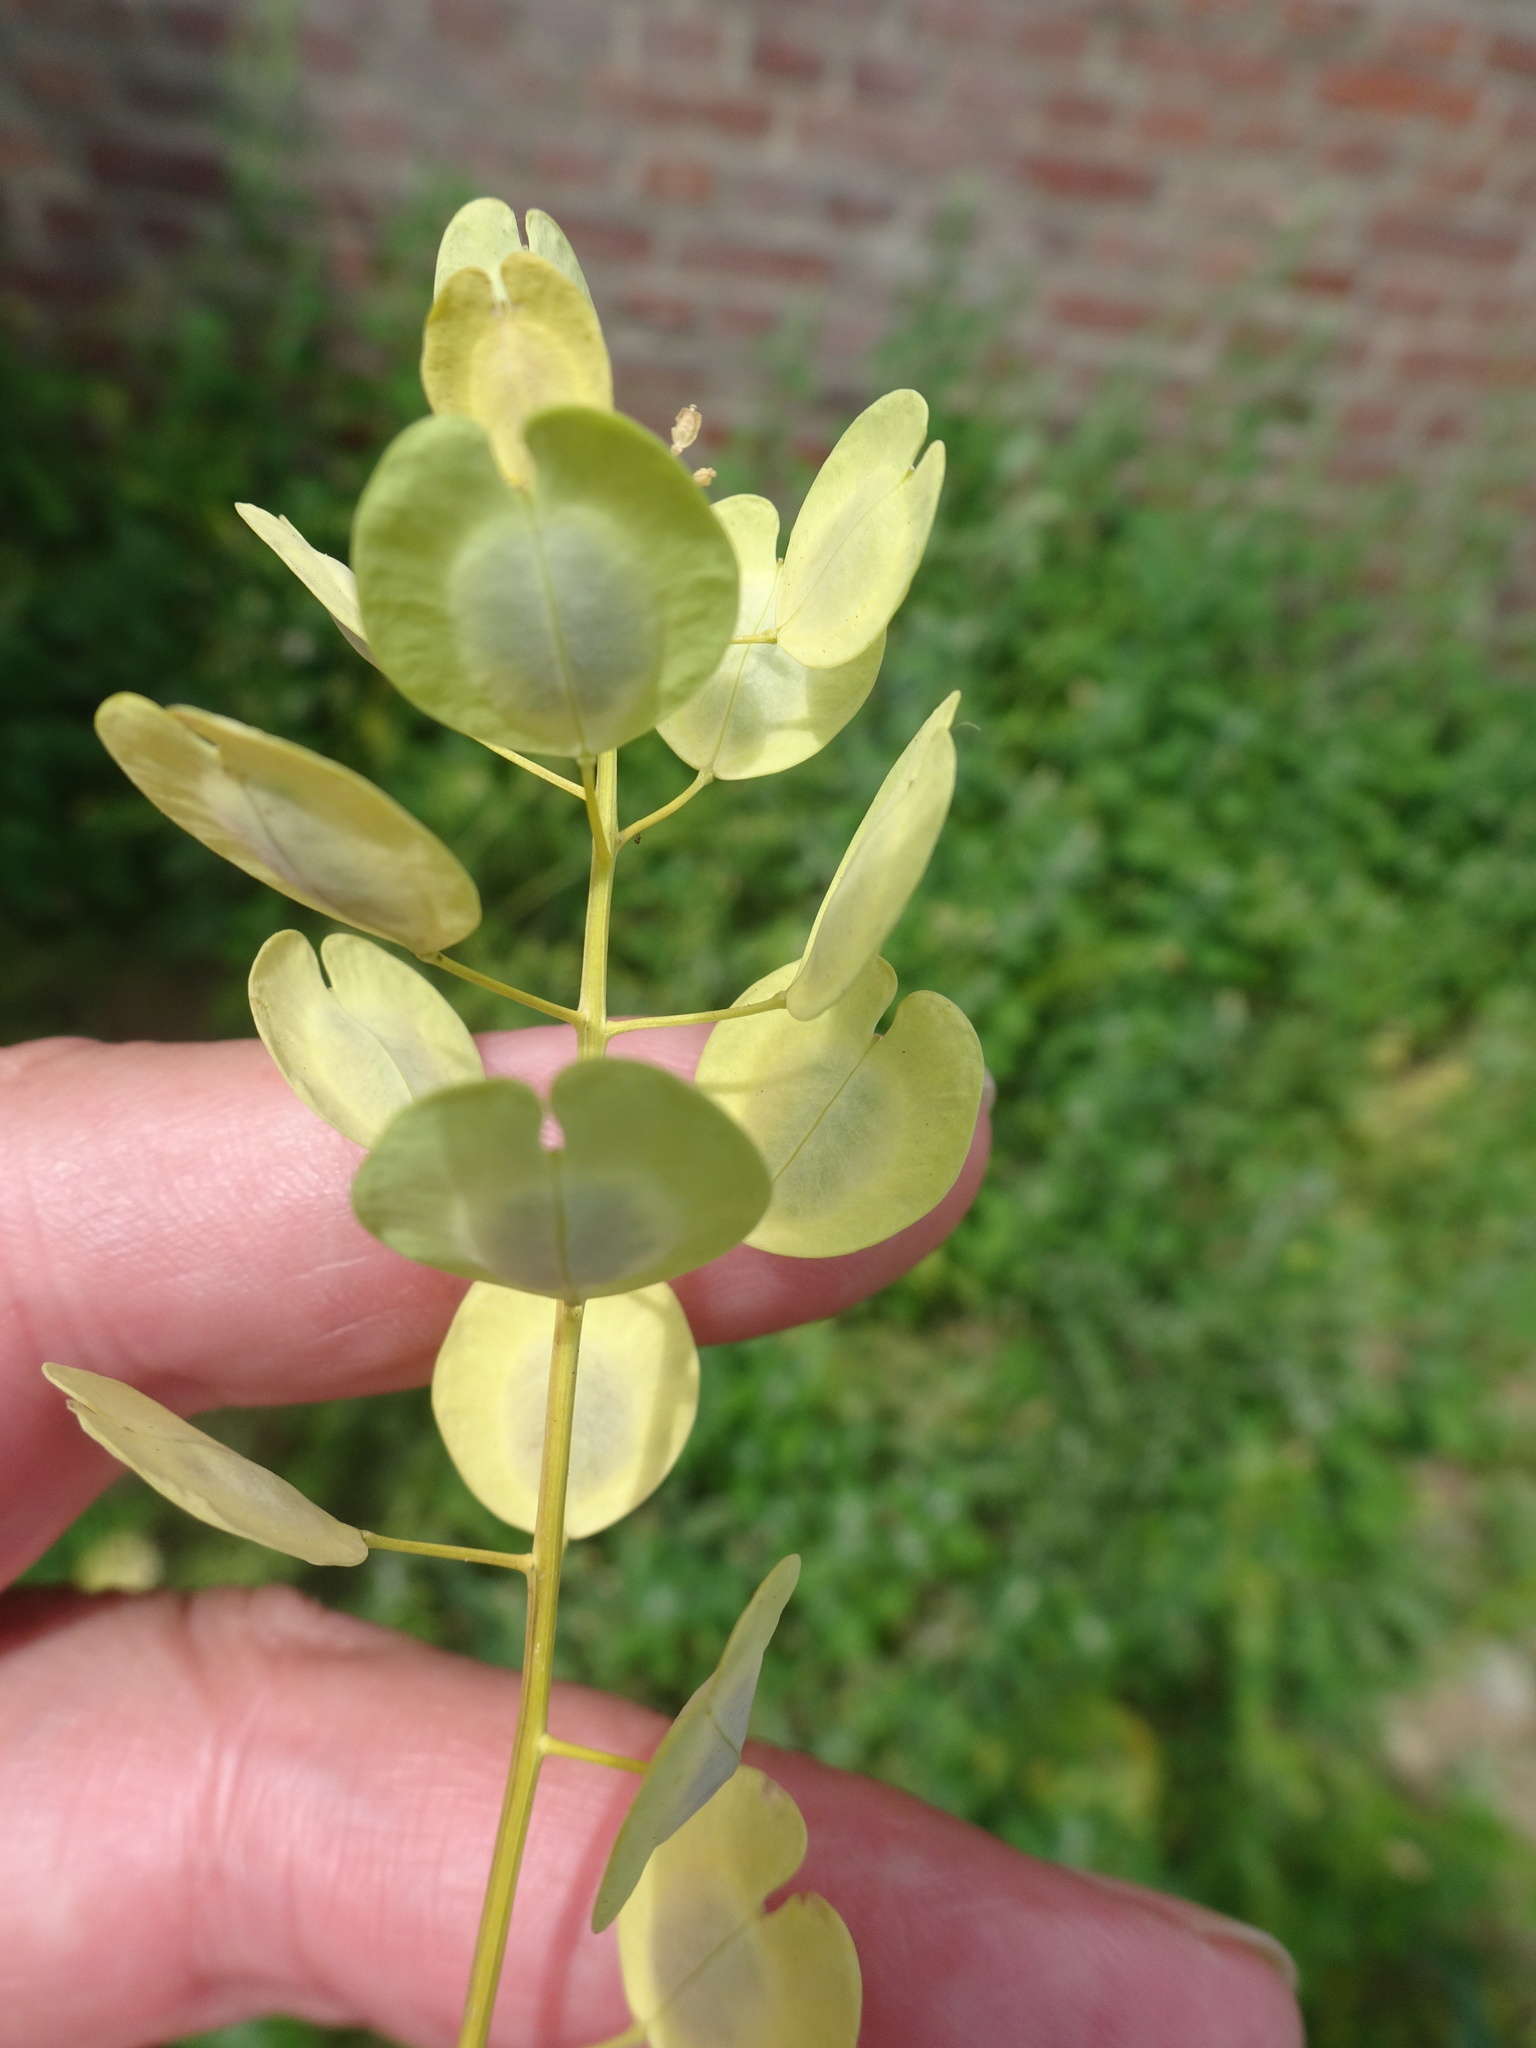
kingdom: Plantae
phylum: Tracheophyta
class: Magnoliopsida
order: Brassicales
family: Brassicaceae
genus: Thlaspi
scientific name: Thlaspi arvense
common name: Field pennycress
